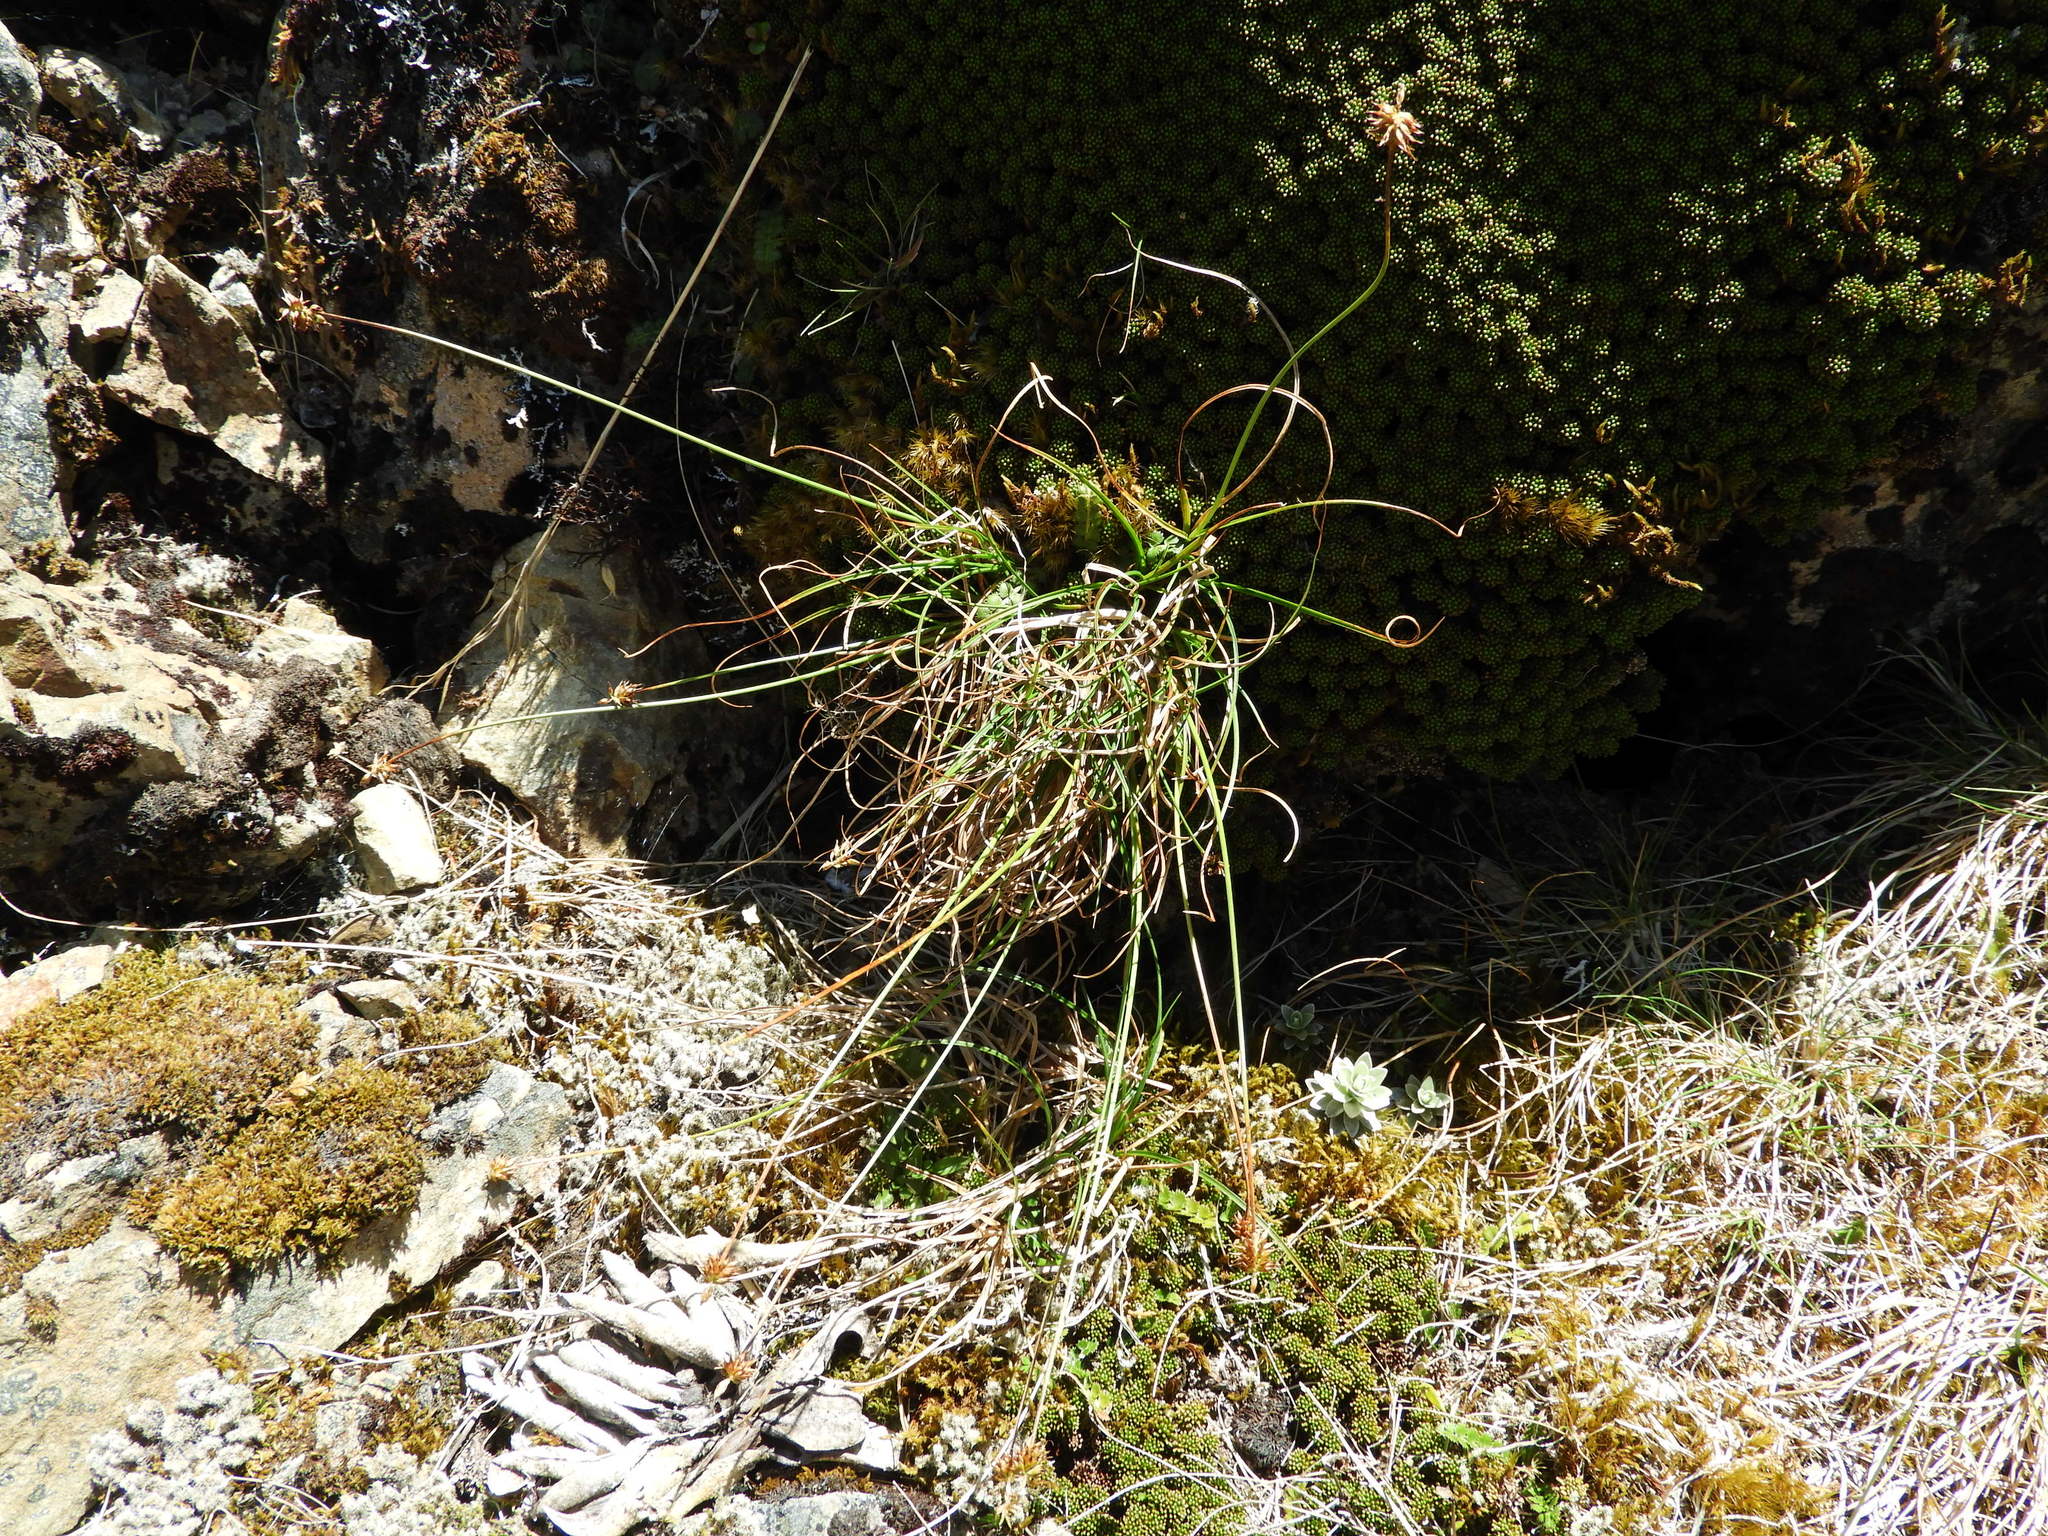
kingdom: Plantae
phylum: Tracheophyta
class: Liliopsida
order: Poales
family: Cyperaceae
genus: Carex
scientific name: Carex cephalotes
